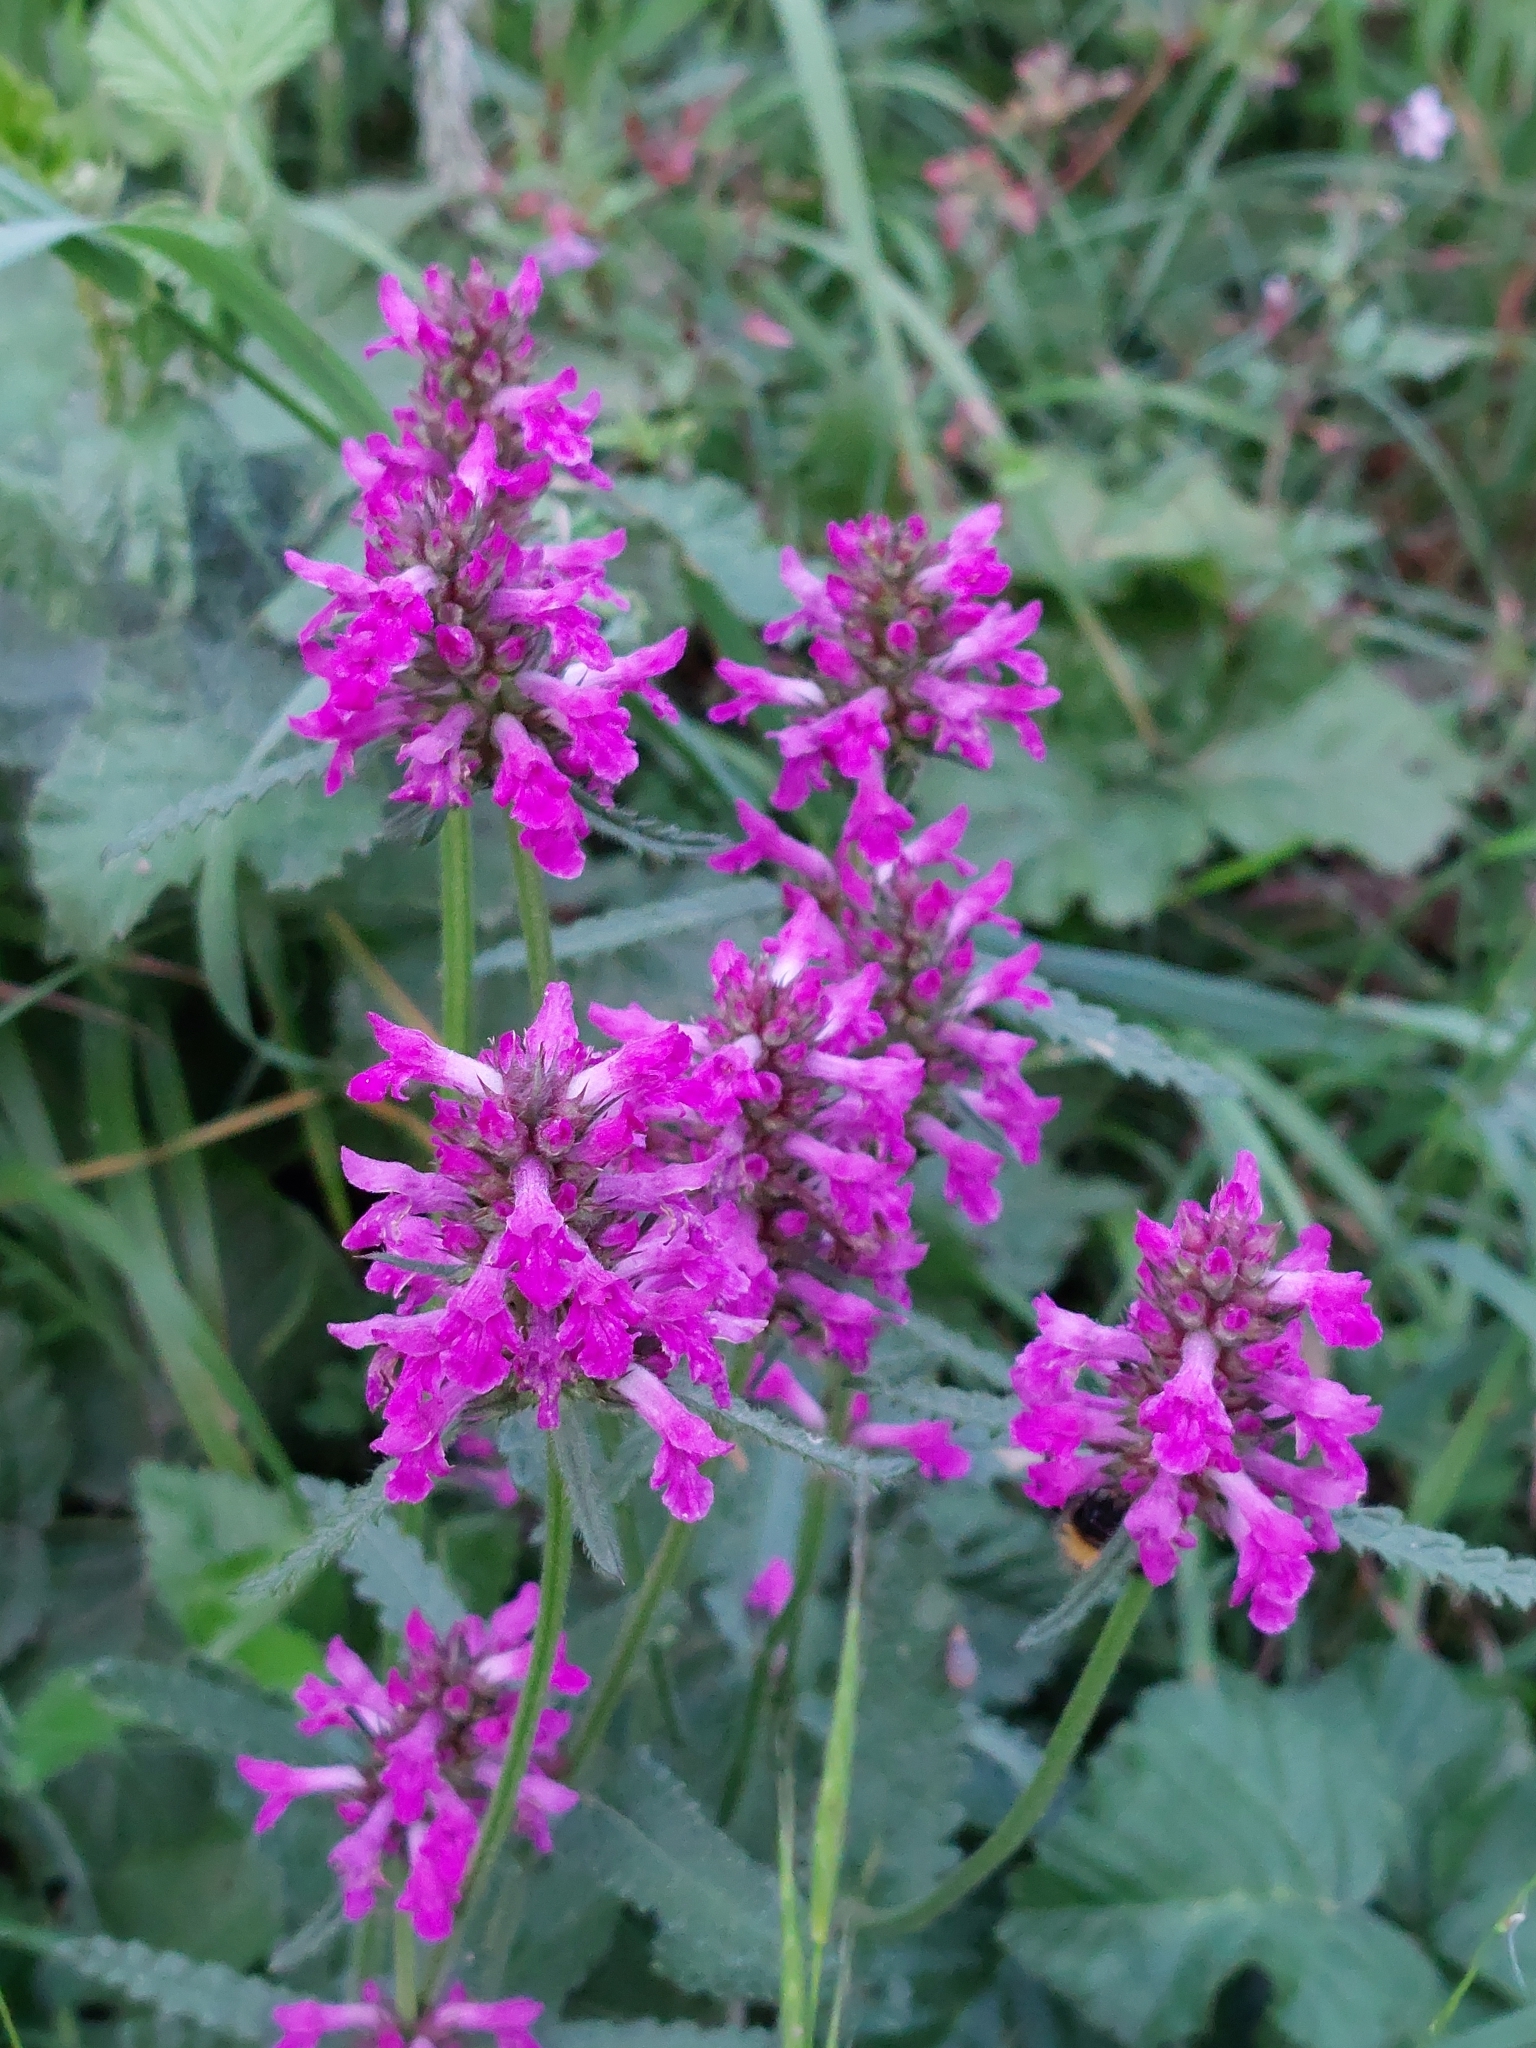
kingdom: Plantae
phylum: Tracheophyta
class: Magnoliopsida
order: Lamiales
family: Lamiaceae
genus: Betonica
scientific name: Betonica officinalis
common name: Bishop's-wort
